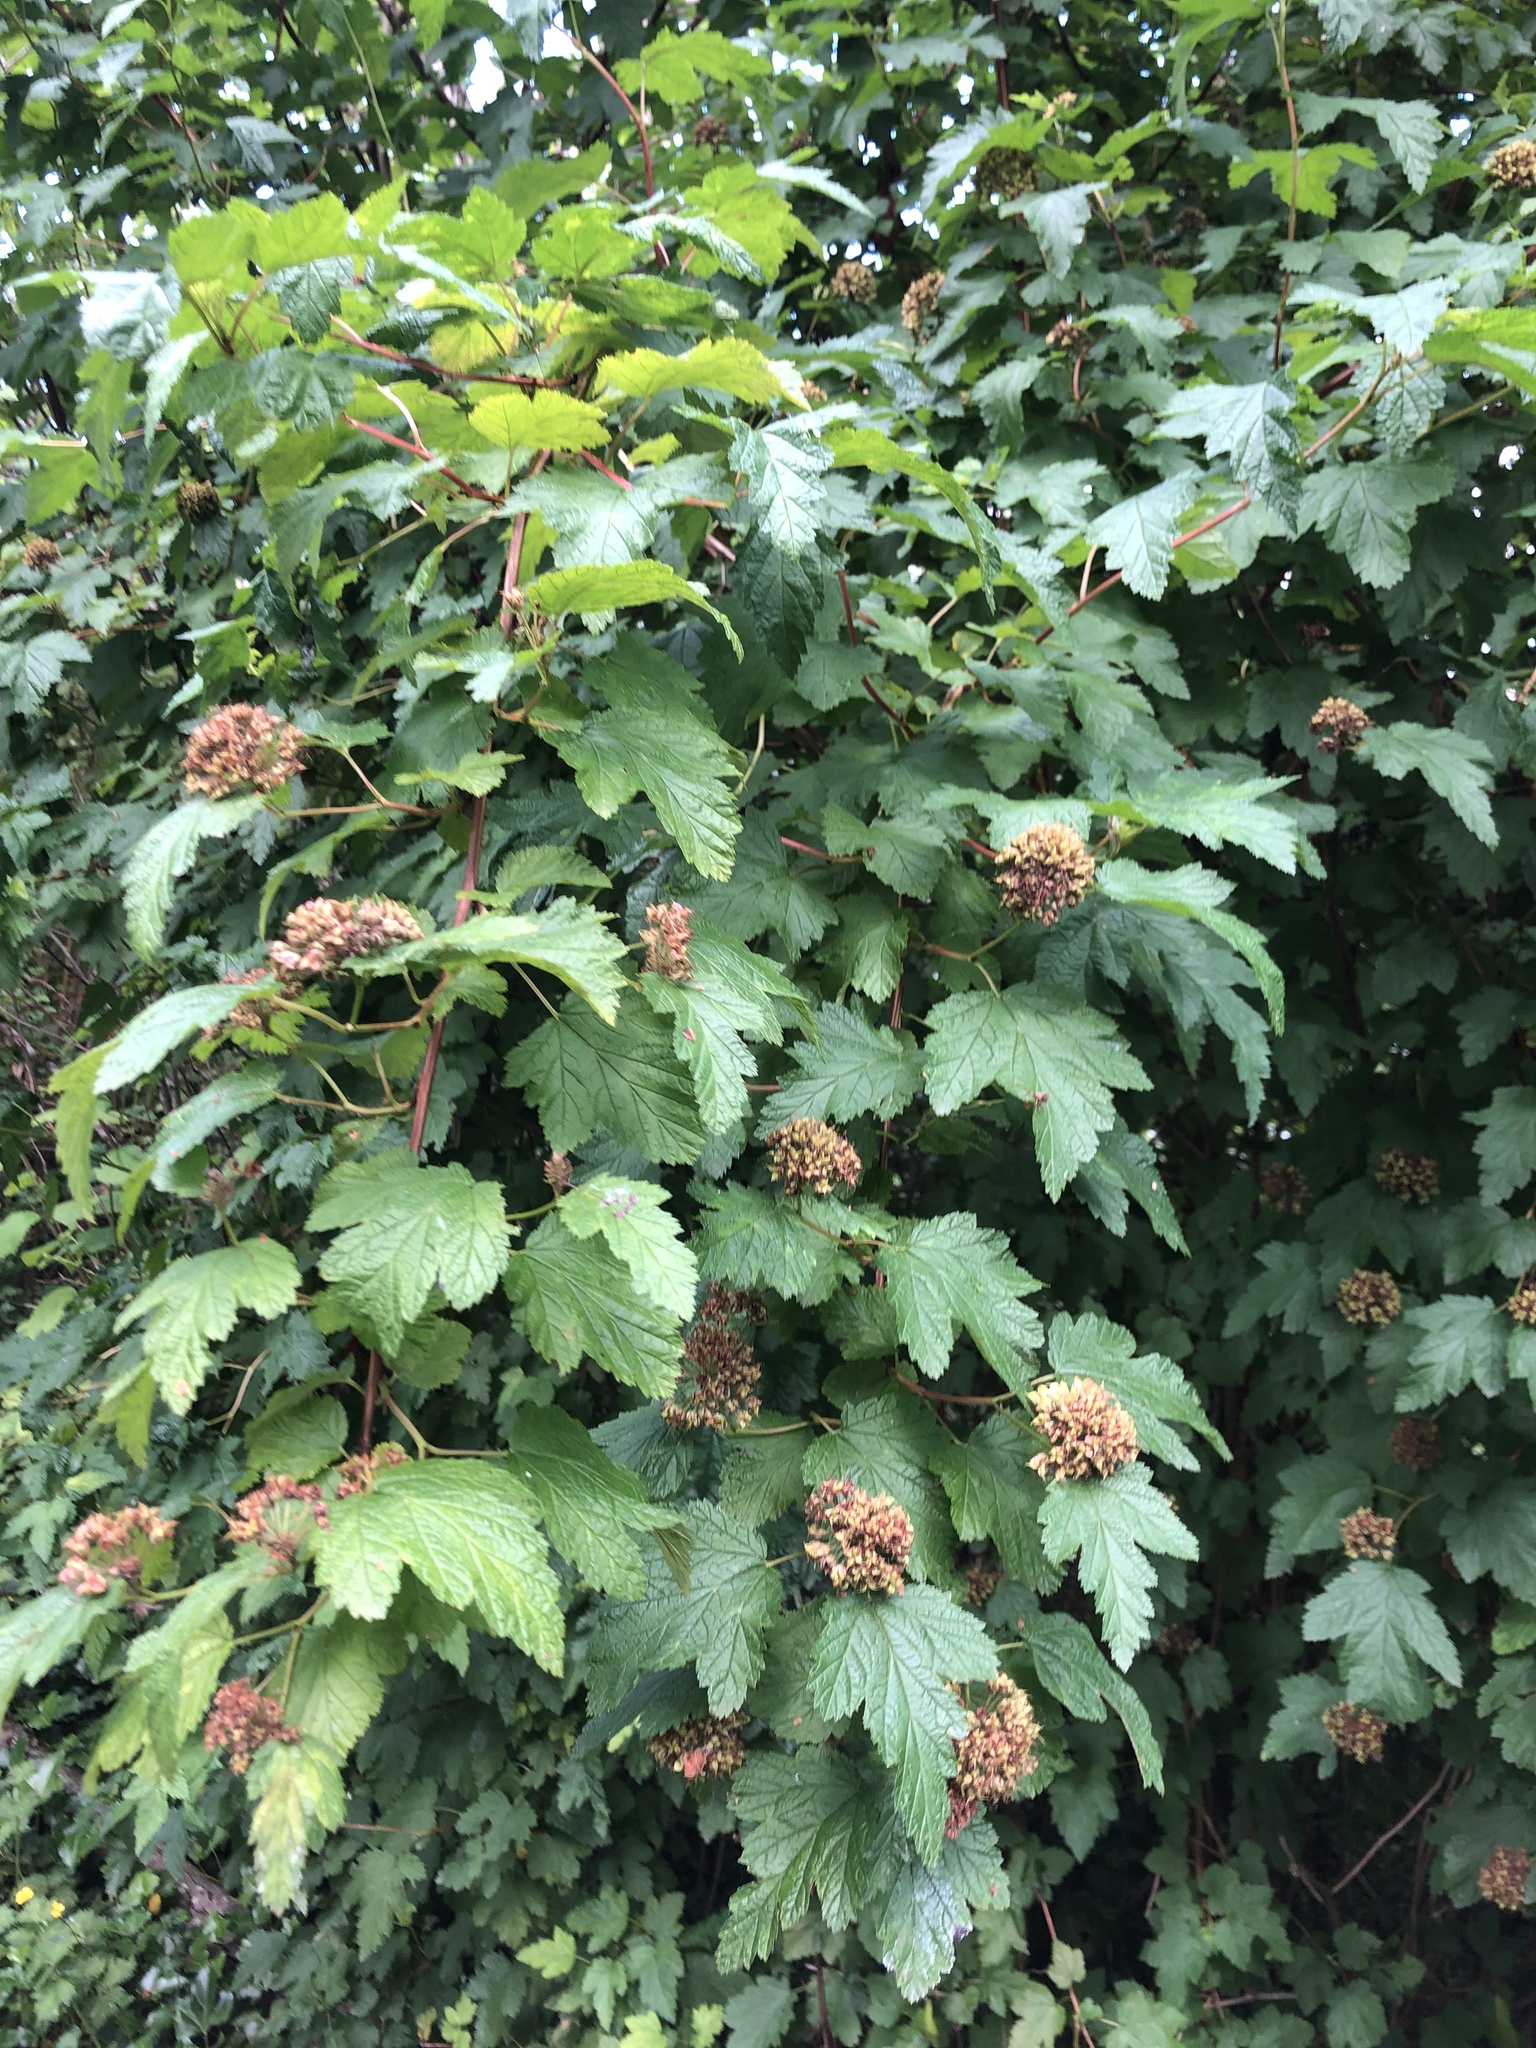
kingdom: Plantae
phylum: Tracheophyta
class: Magnoliopsida
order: Rosales
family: Rosaceae
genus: Physocarpus
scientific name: Physocarpus capitatus
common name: Pacific ninebark
